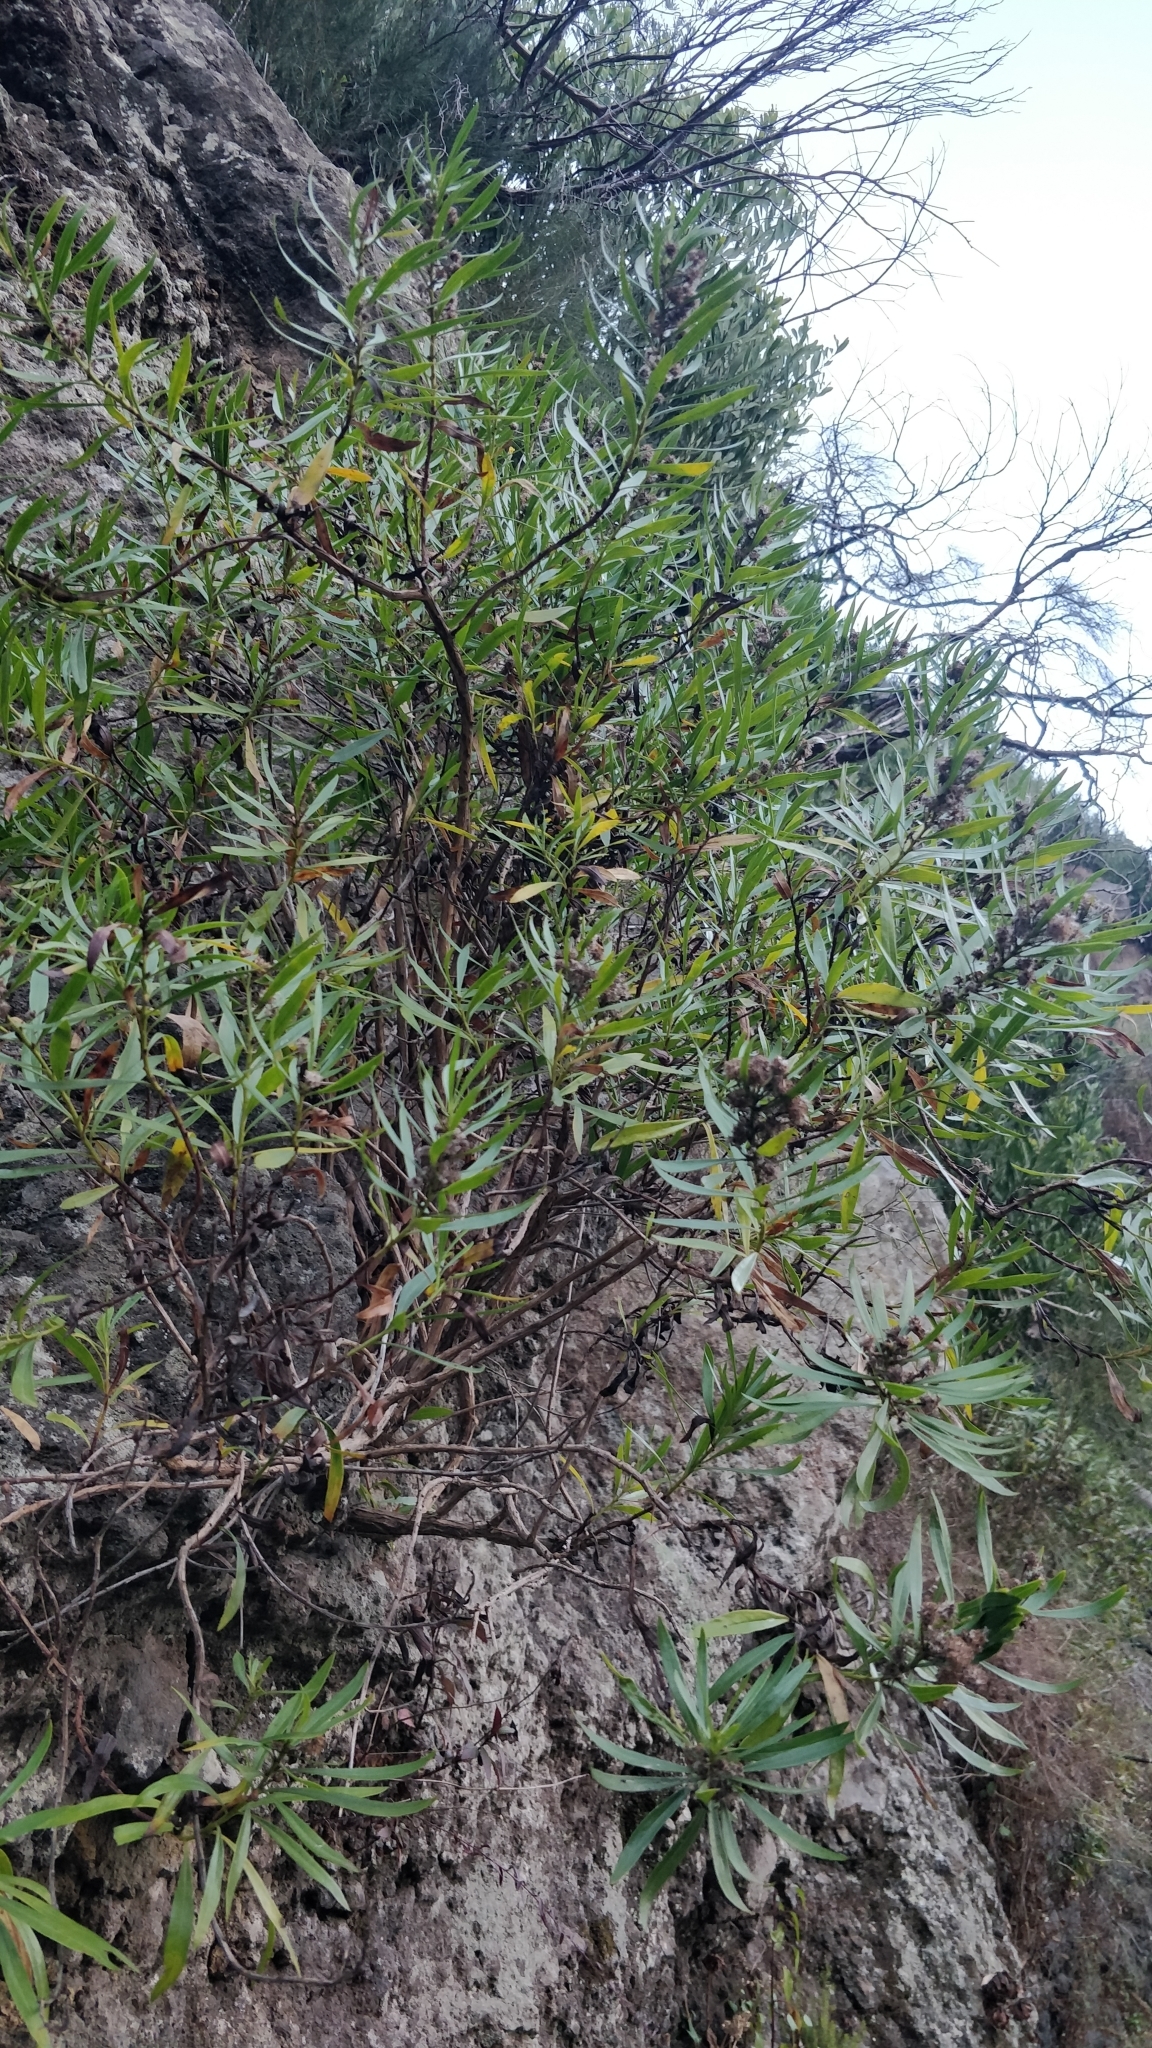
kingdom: Plantae
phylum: Tracheophyta
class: Magnoliopsida
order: Lamiales
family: Plantaginaceae
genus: Globularia
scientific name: Globularia salicina
